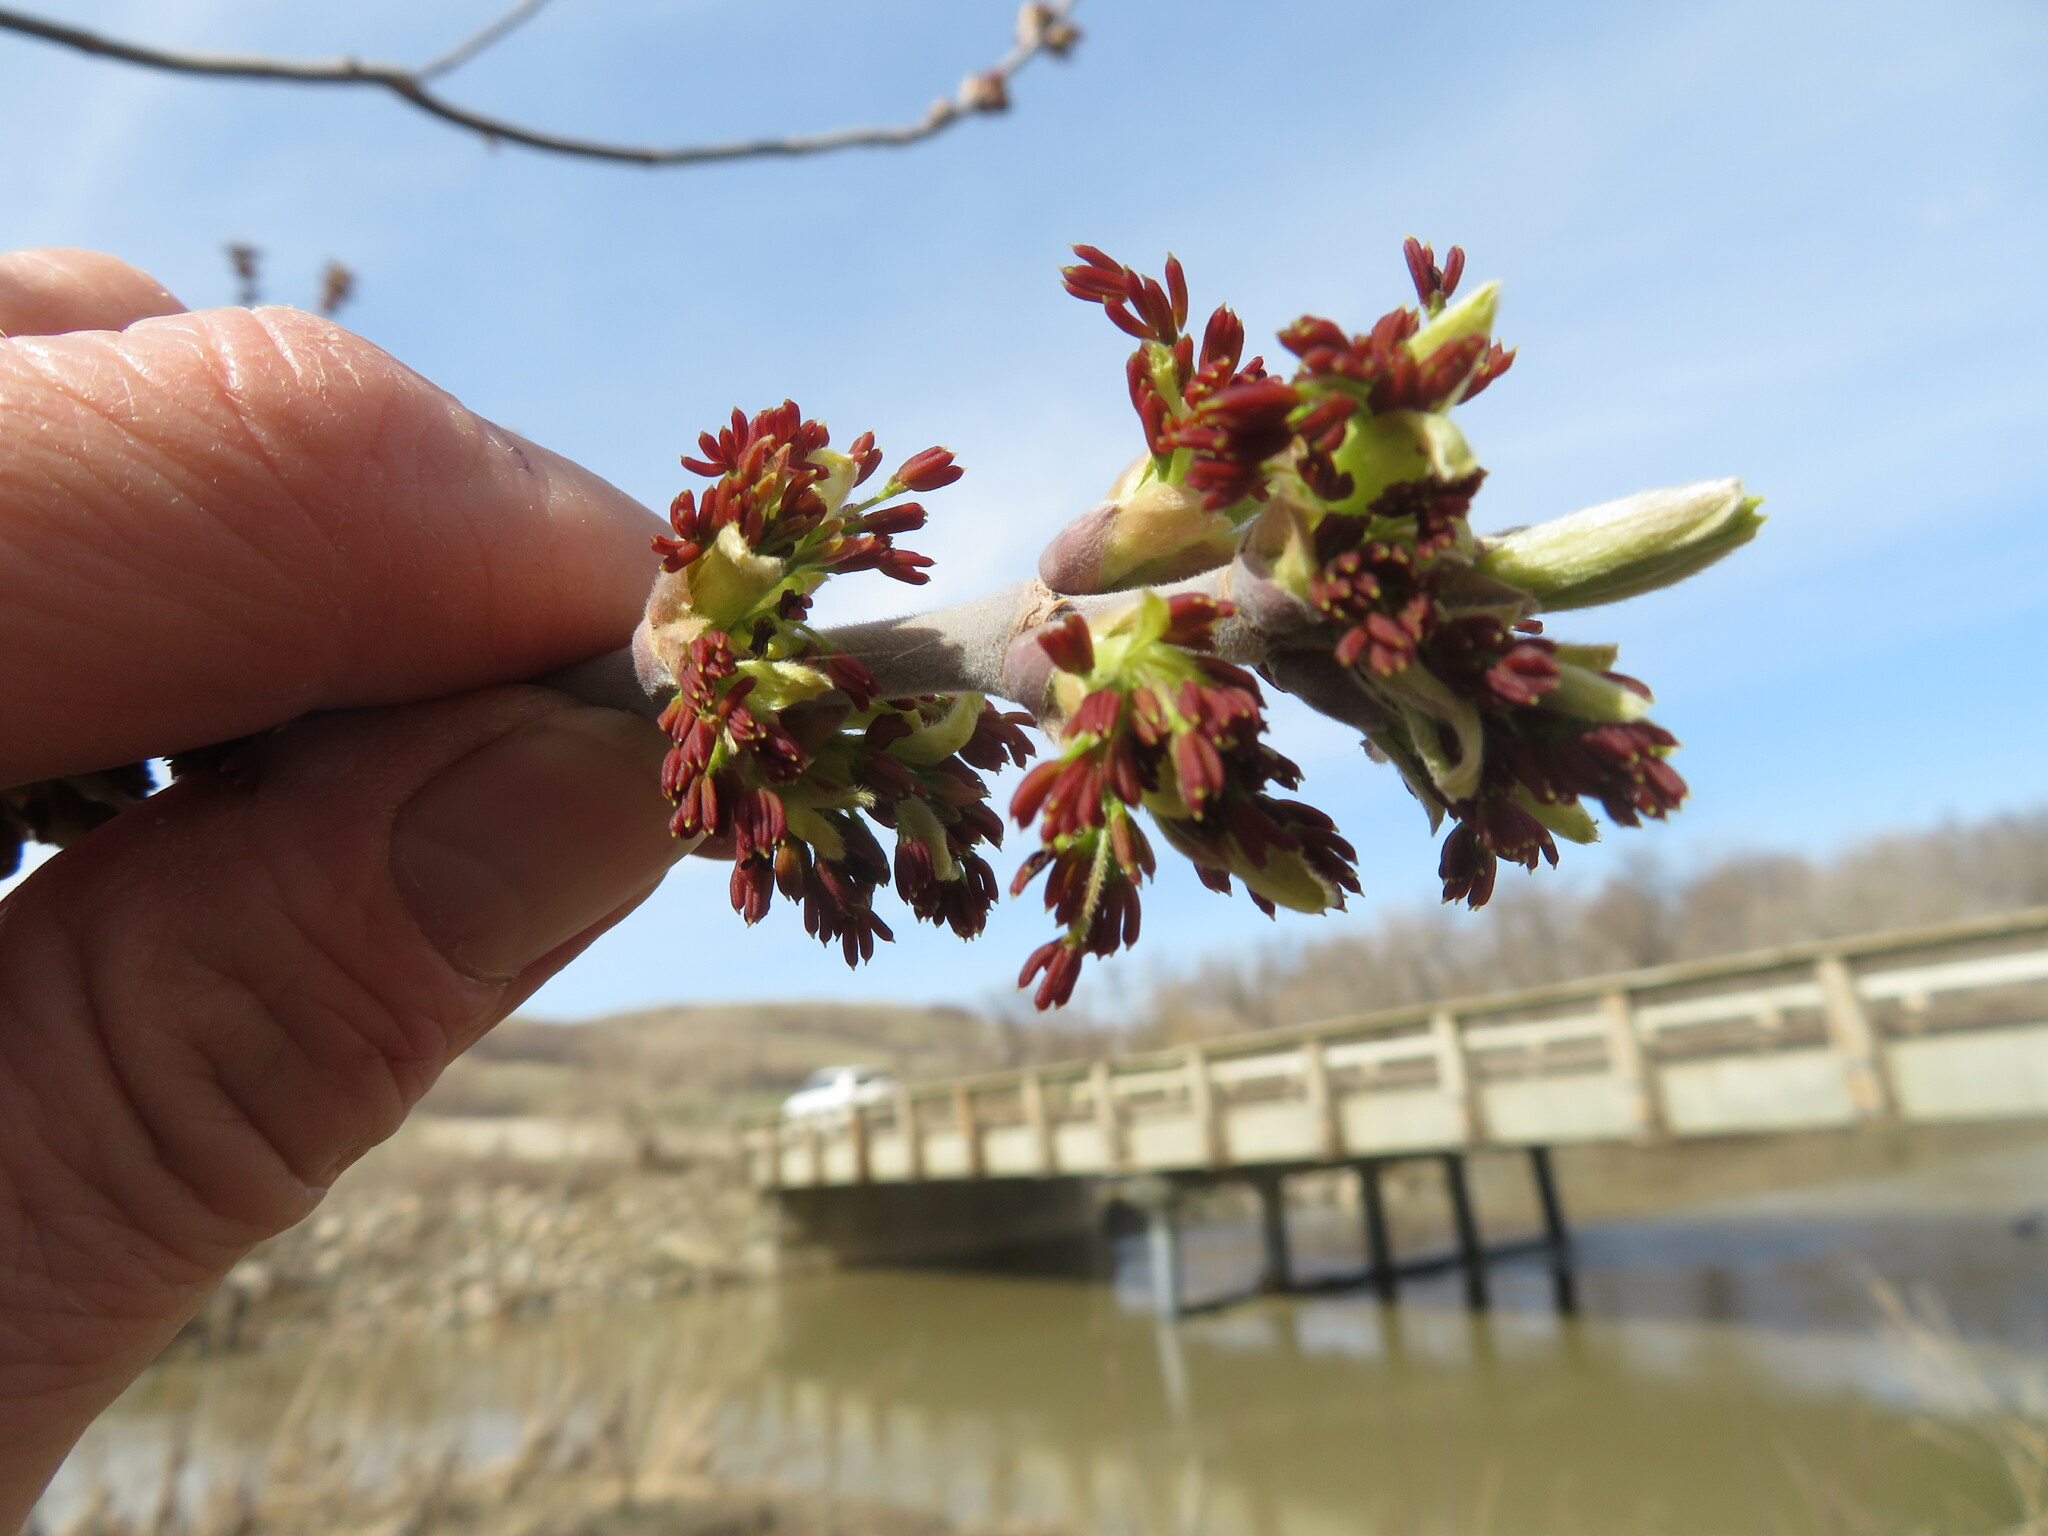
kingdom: Plantae
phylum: Tracheophyta
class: Magnoliopsida
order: Sapindales
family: Sapindaceae
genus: Acer
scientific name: Acer negundo
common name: Ashleaf maple
